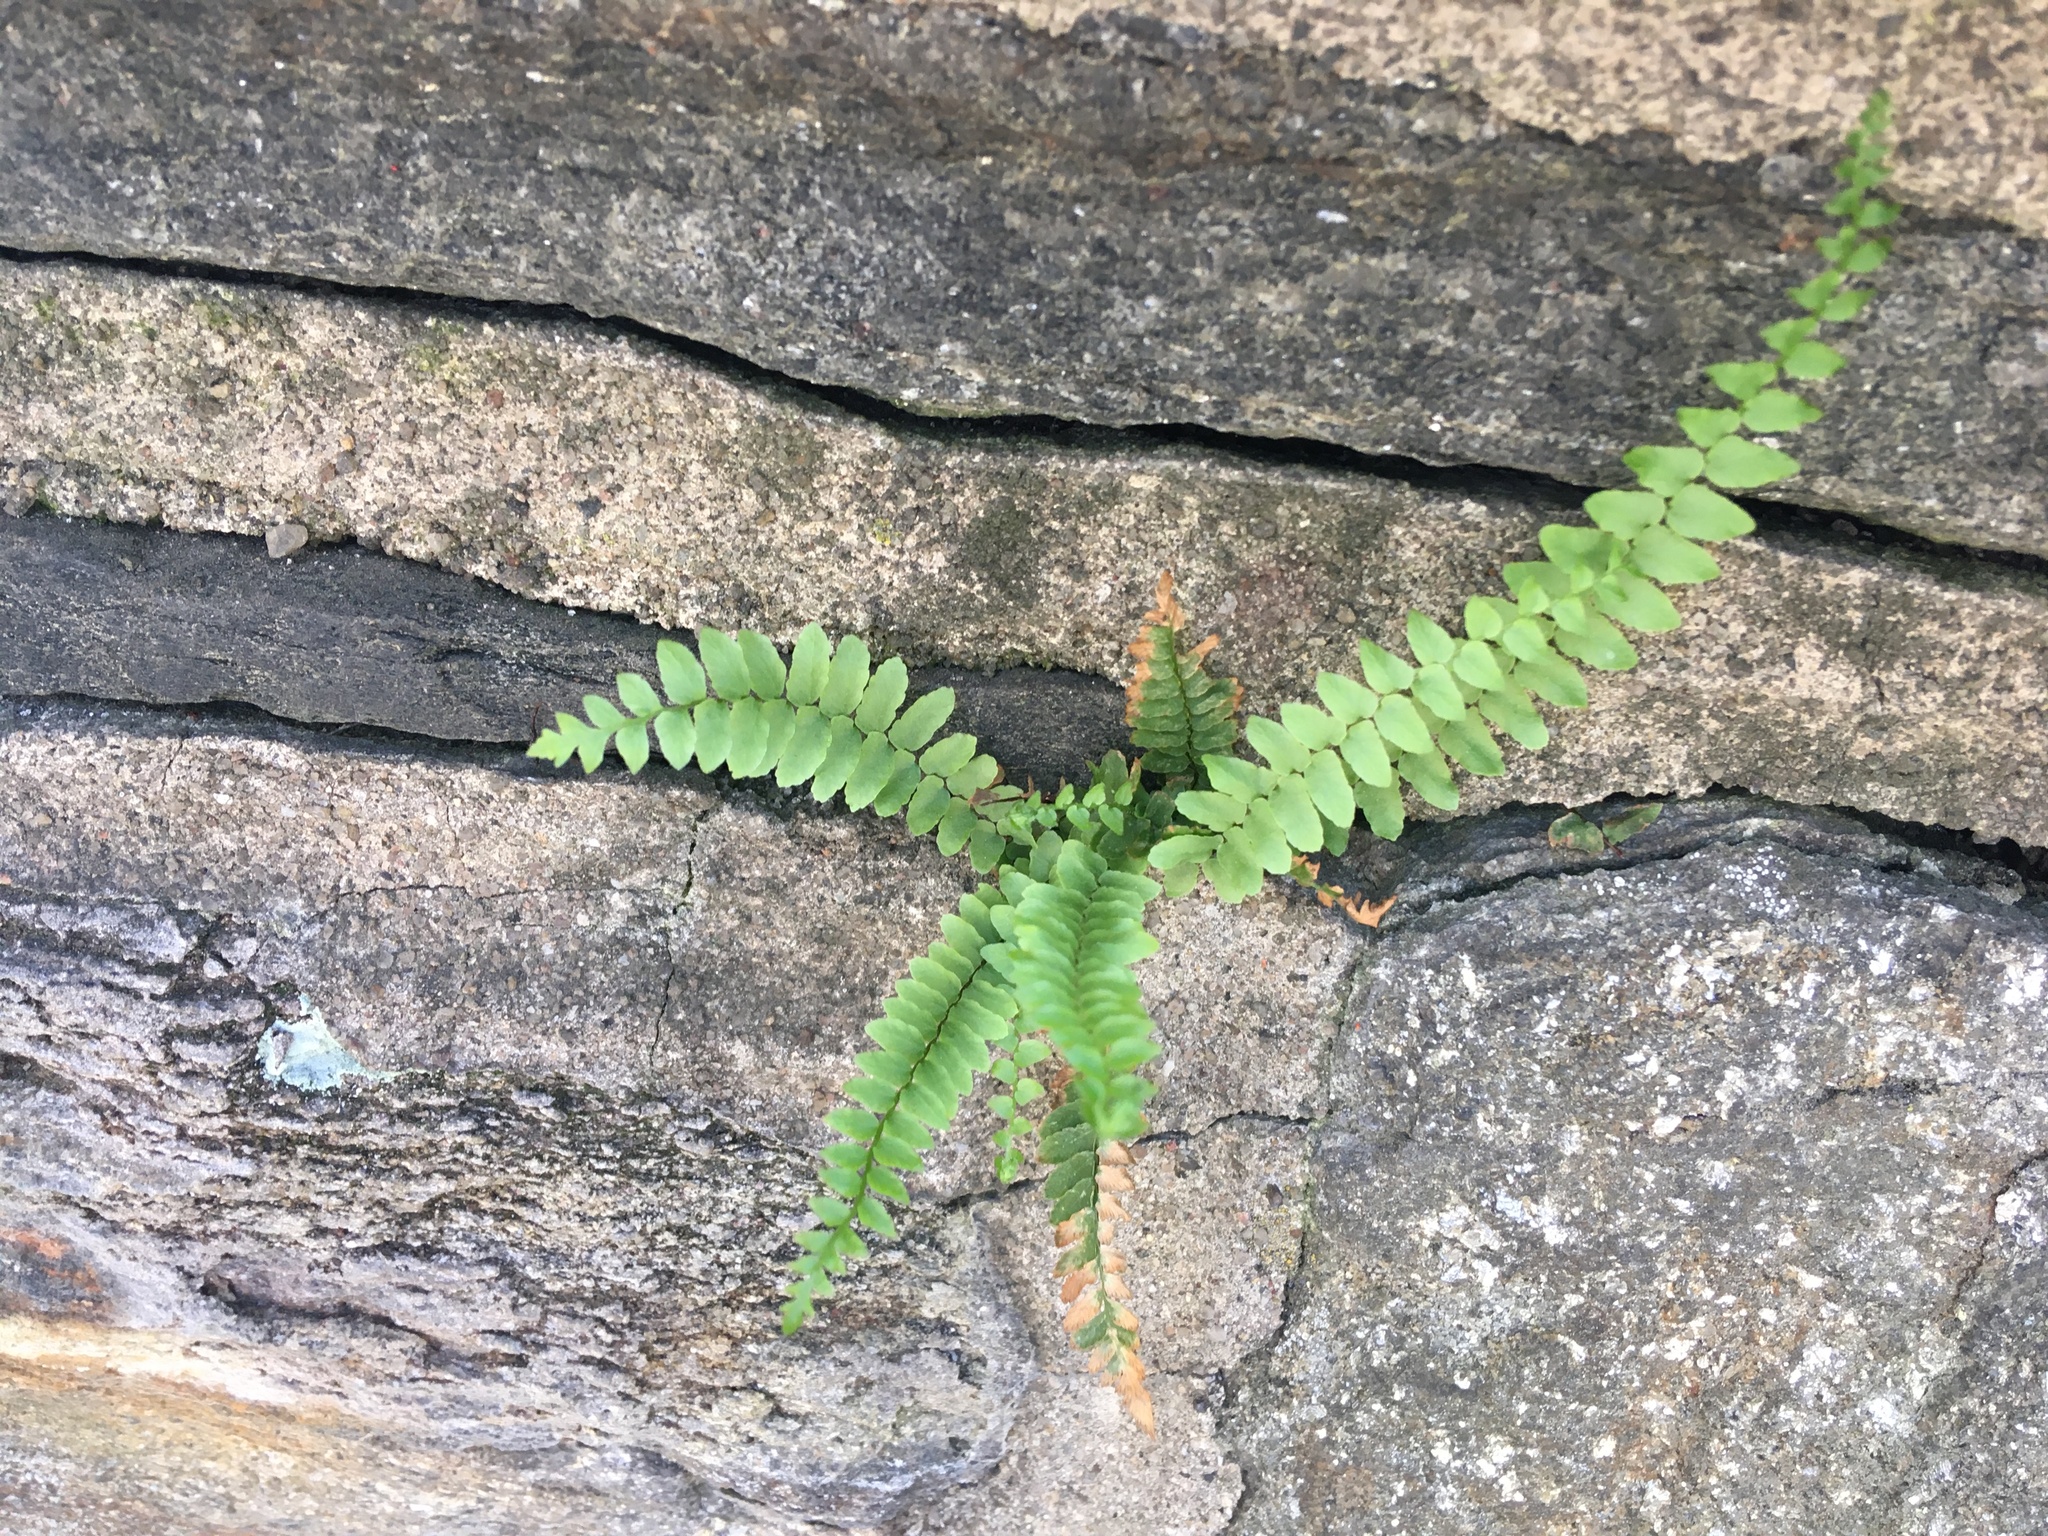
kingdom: Plantae
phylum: Tracheophyta
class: Polypodiopsida
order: Polypodiales
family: Aspleniaceae
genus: Asplenium
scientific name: Asplenium platyneuron
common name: Ebony spleenwort
